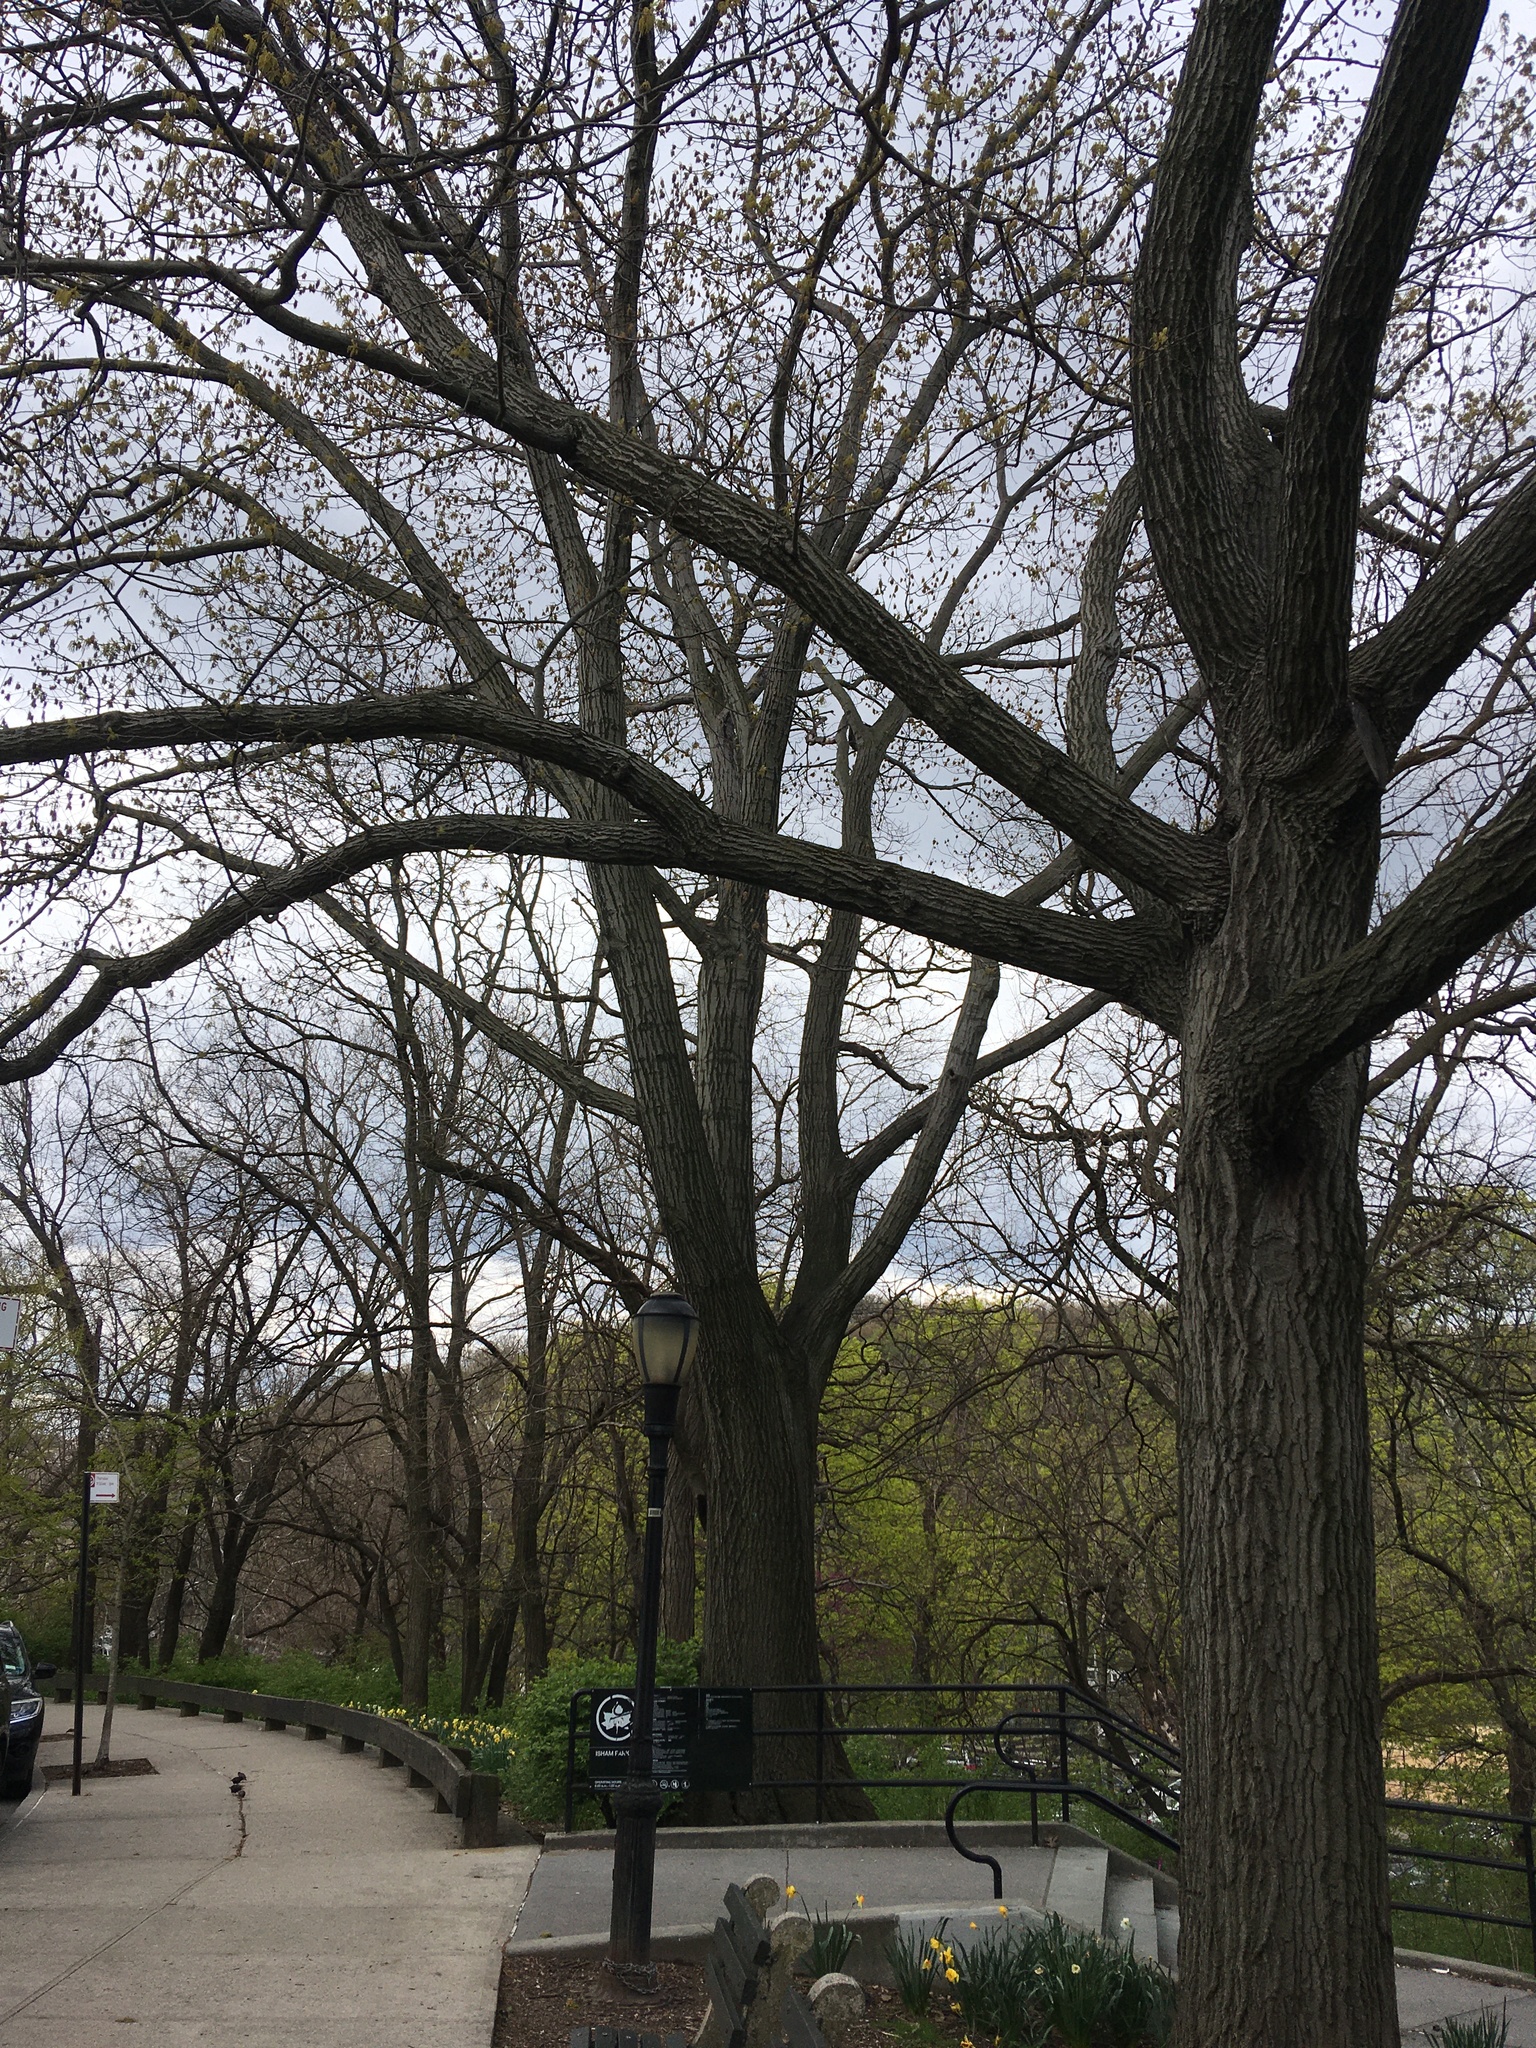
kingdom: Plantae
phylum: Tracheophyta
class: Magnoliopsida
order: Fagales
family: Fagaceae
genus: Quercus
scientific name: Quercus rubra
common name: Red oak
